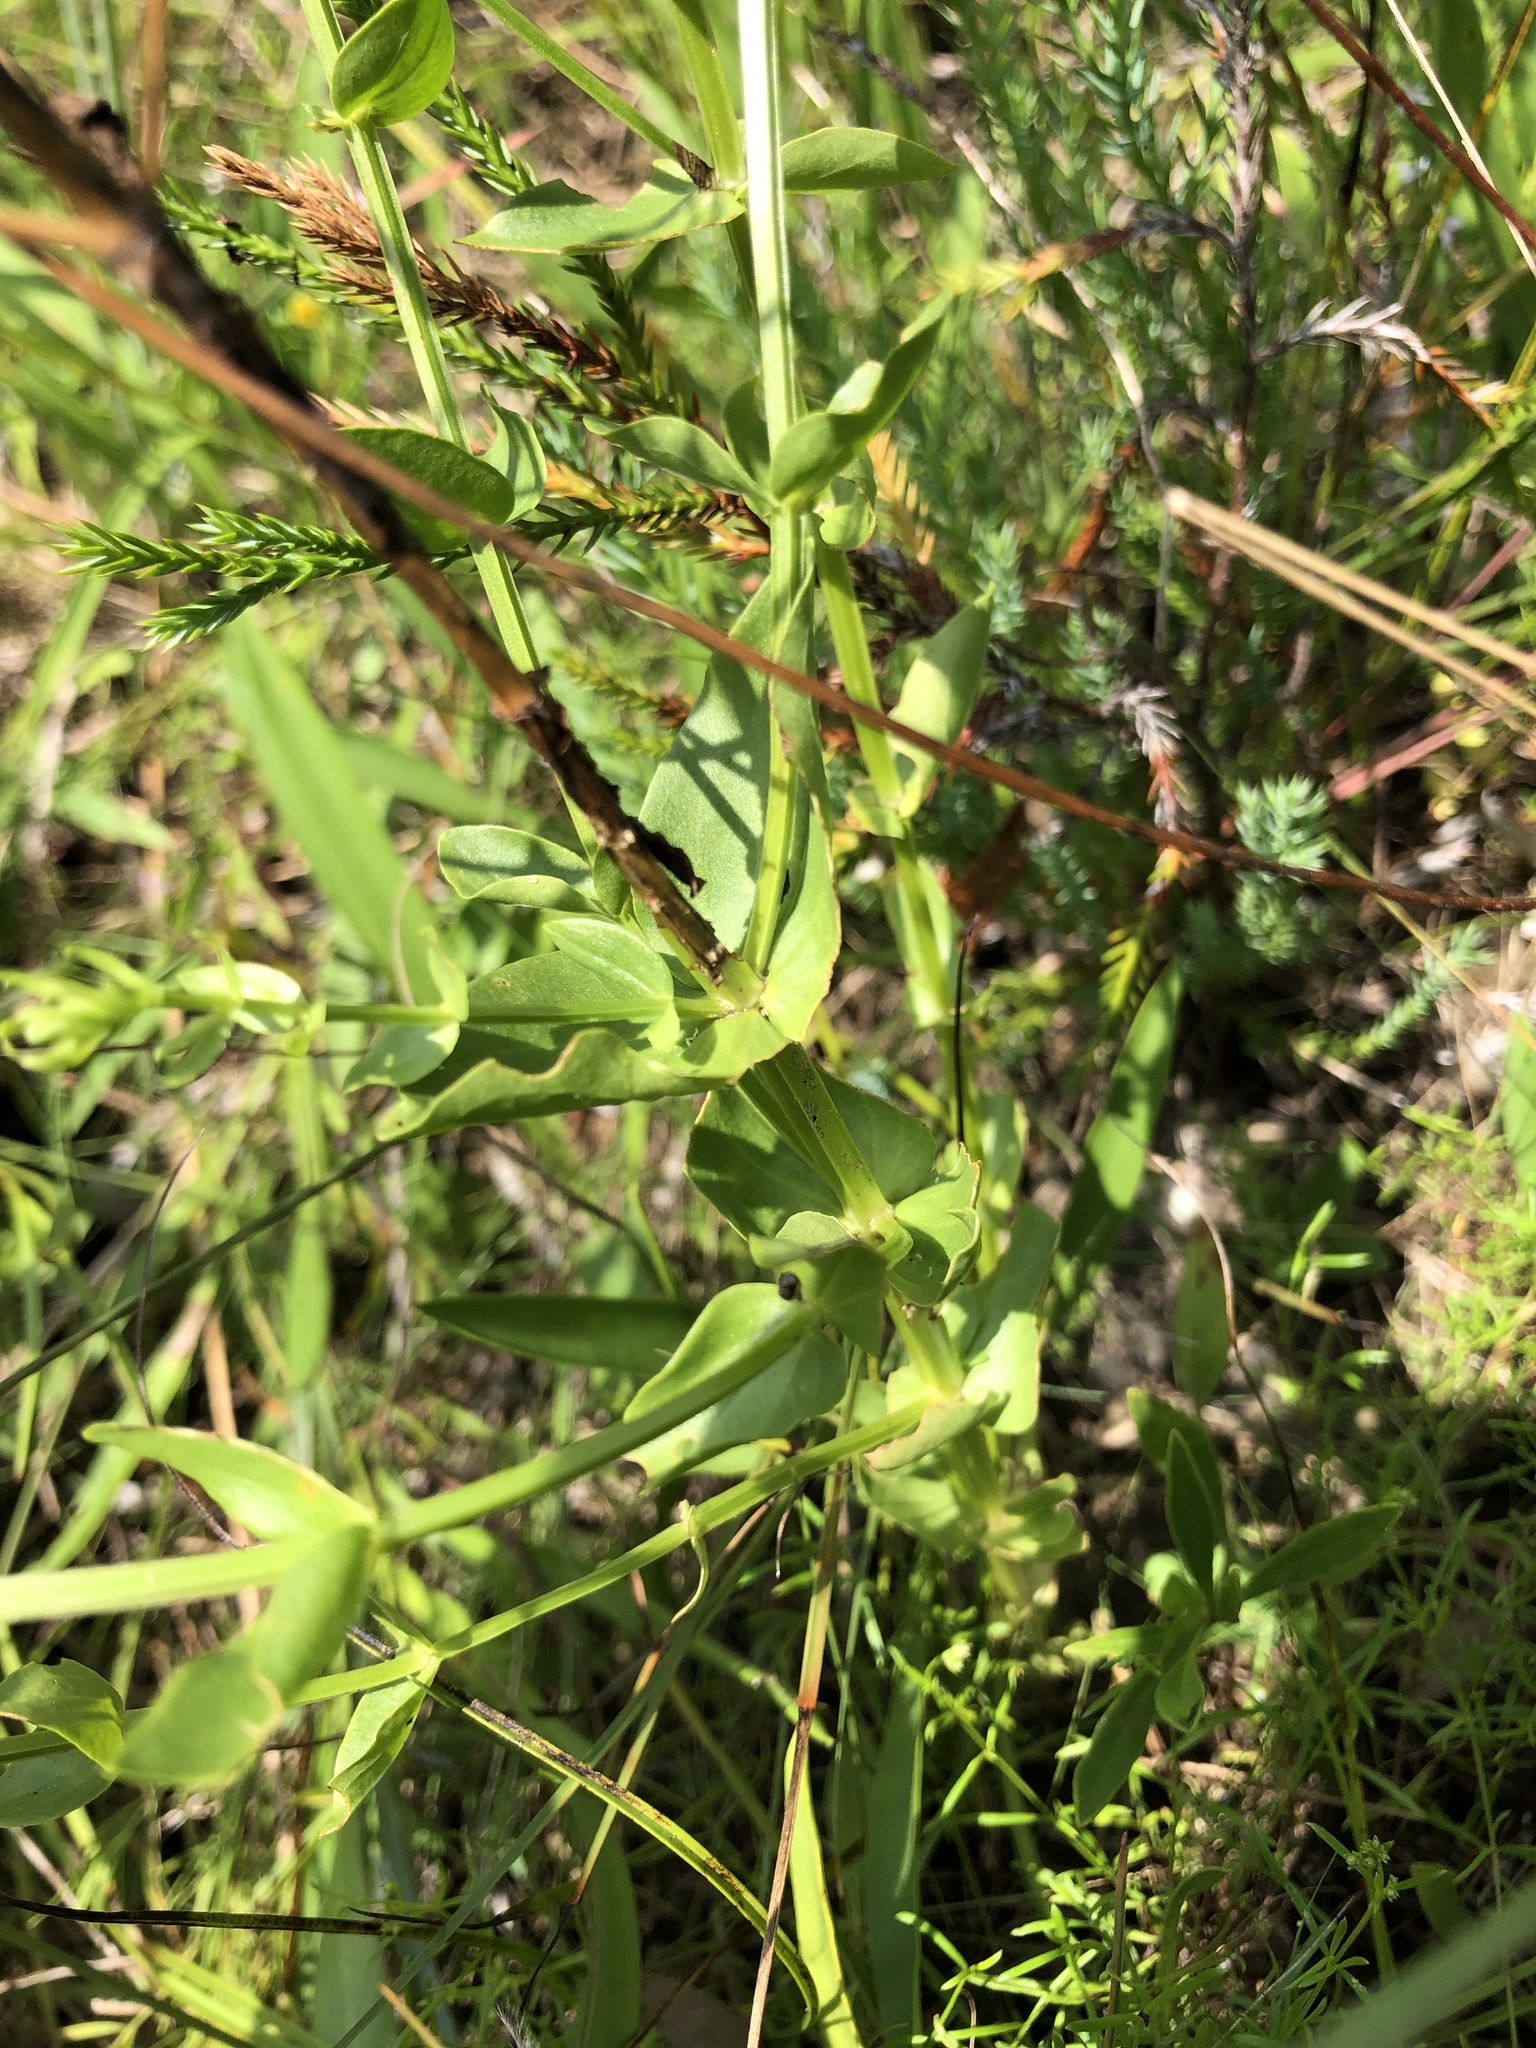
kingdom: Plantae
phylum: Tracheophyta
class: Magnoliopsida
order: Gentianales
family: Gentianaceae
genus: Sabatia
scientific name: Sabatia angularis
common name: Rose-pink
